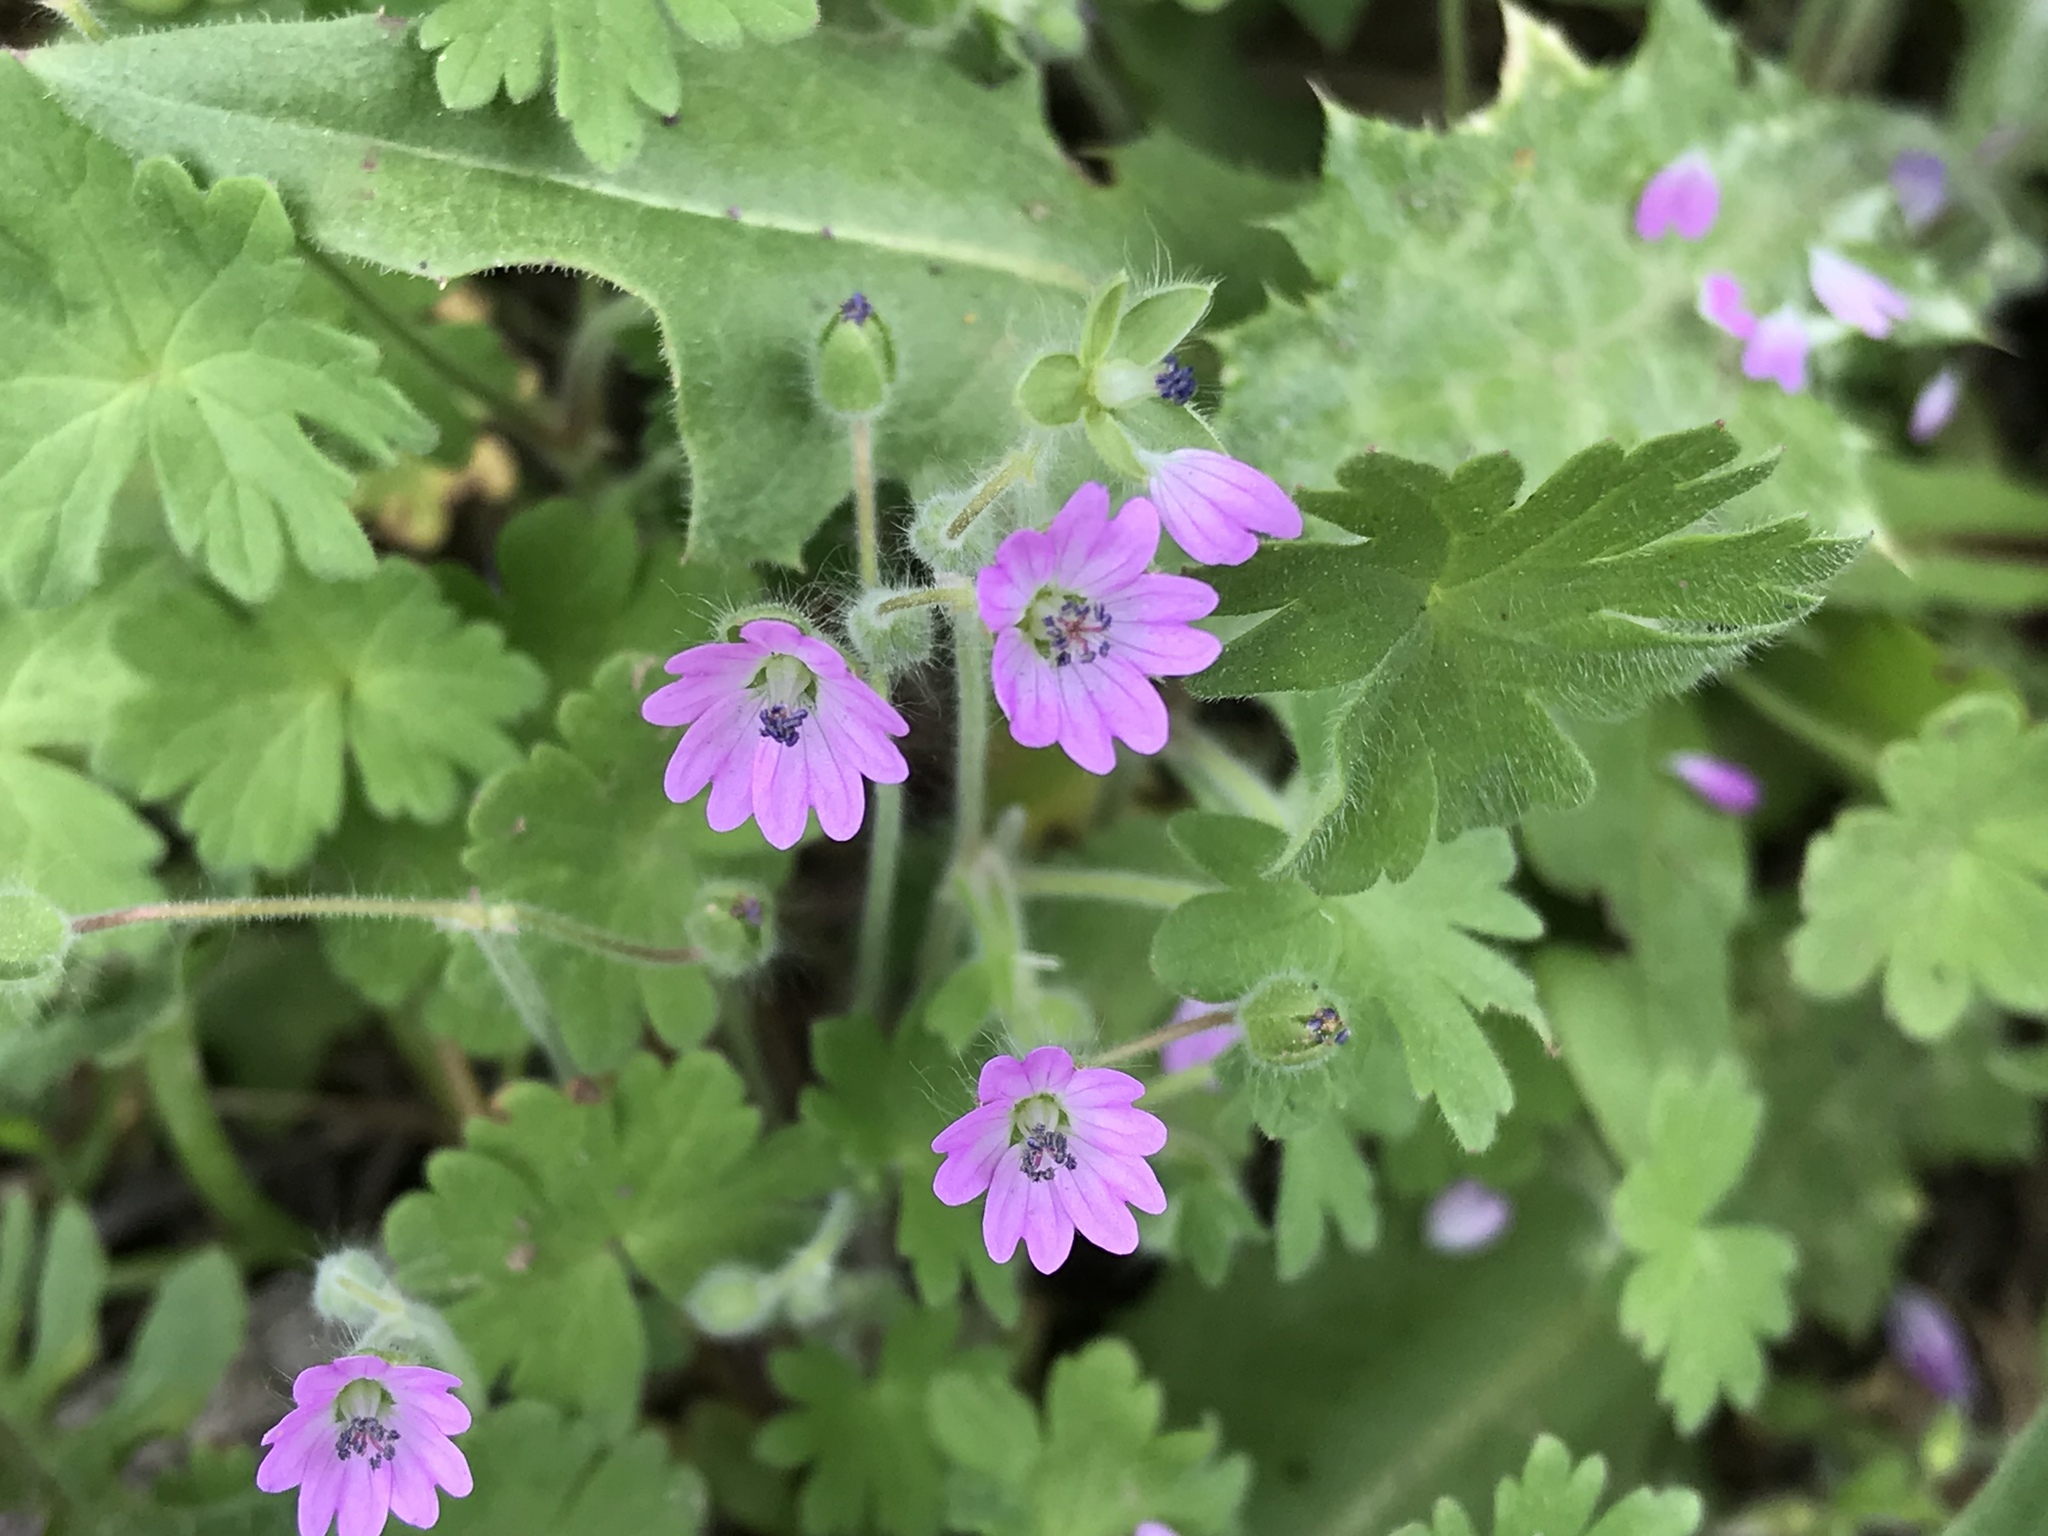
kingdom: Plantae
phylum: Tracheophyta
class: Magnoliopsida
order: Geraniales
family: Geraniaceae
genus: Geranium
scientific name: Geranium molle
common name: Dove's-foot crane's-bill
